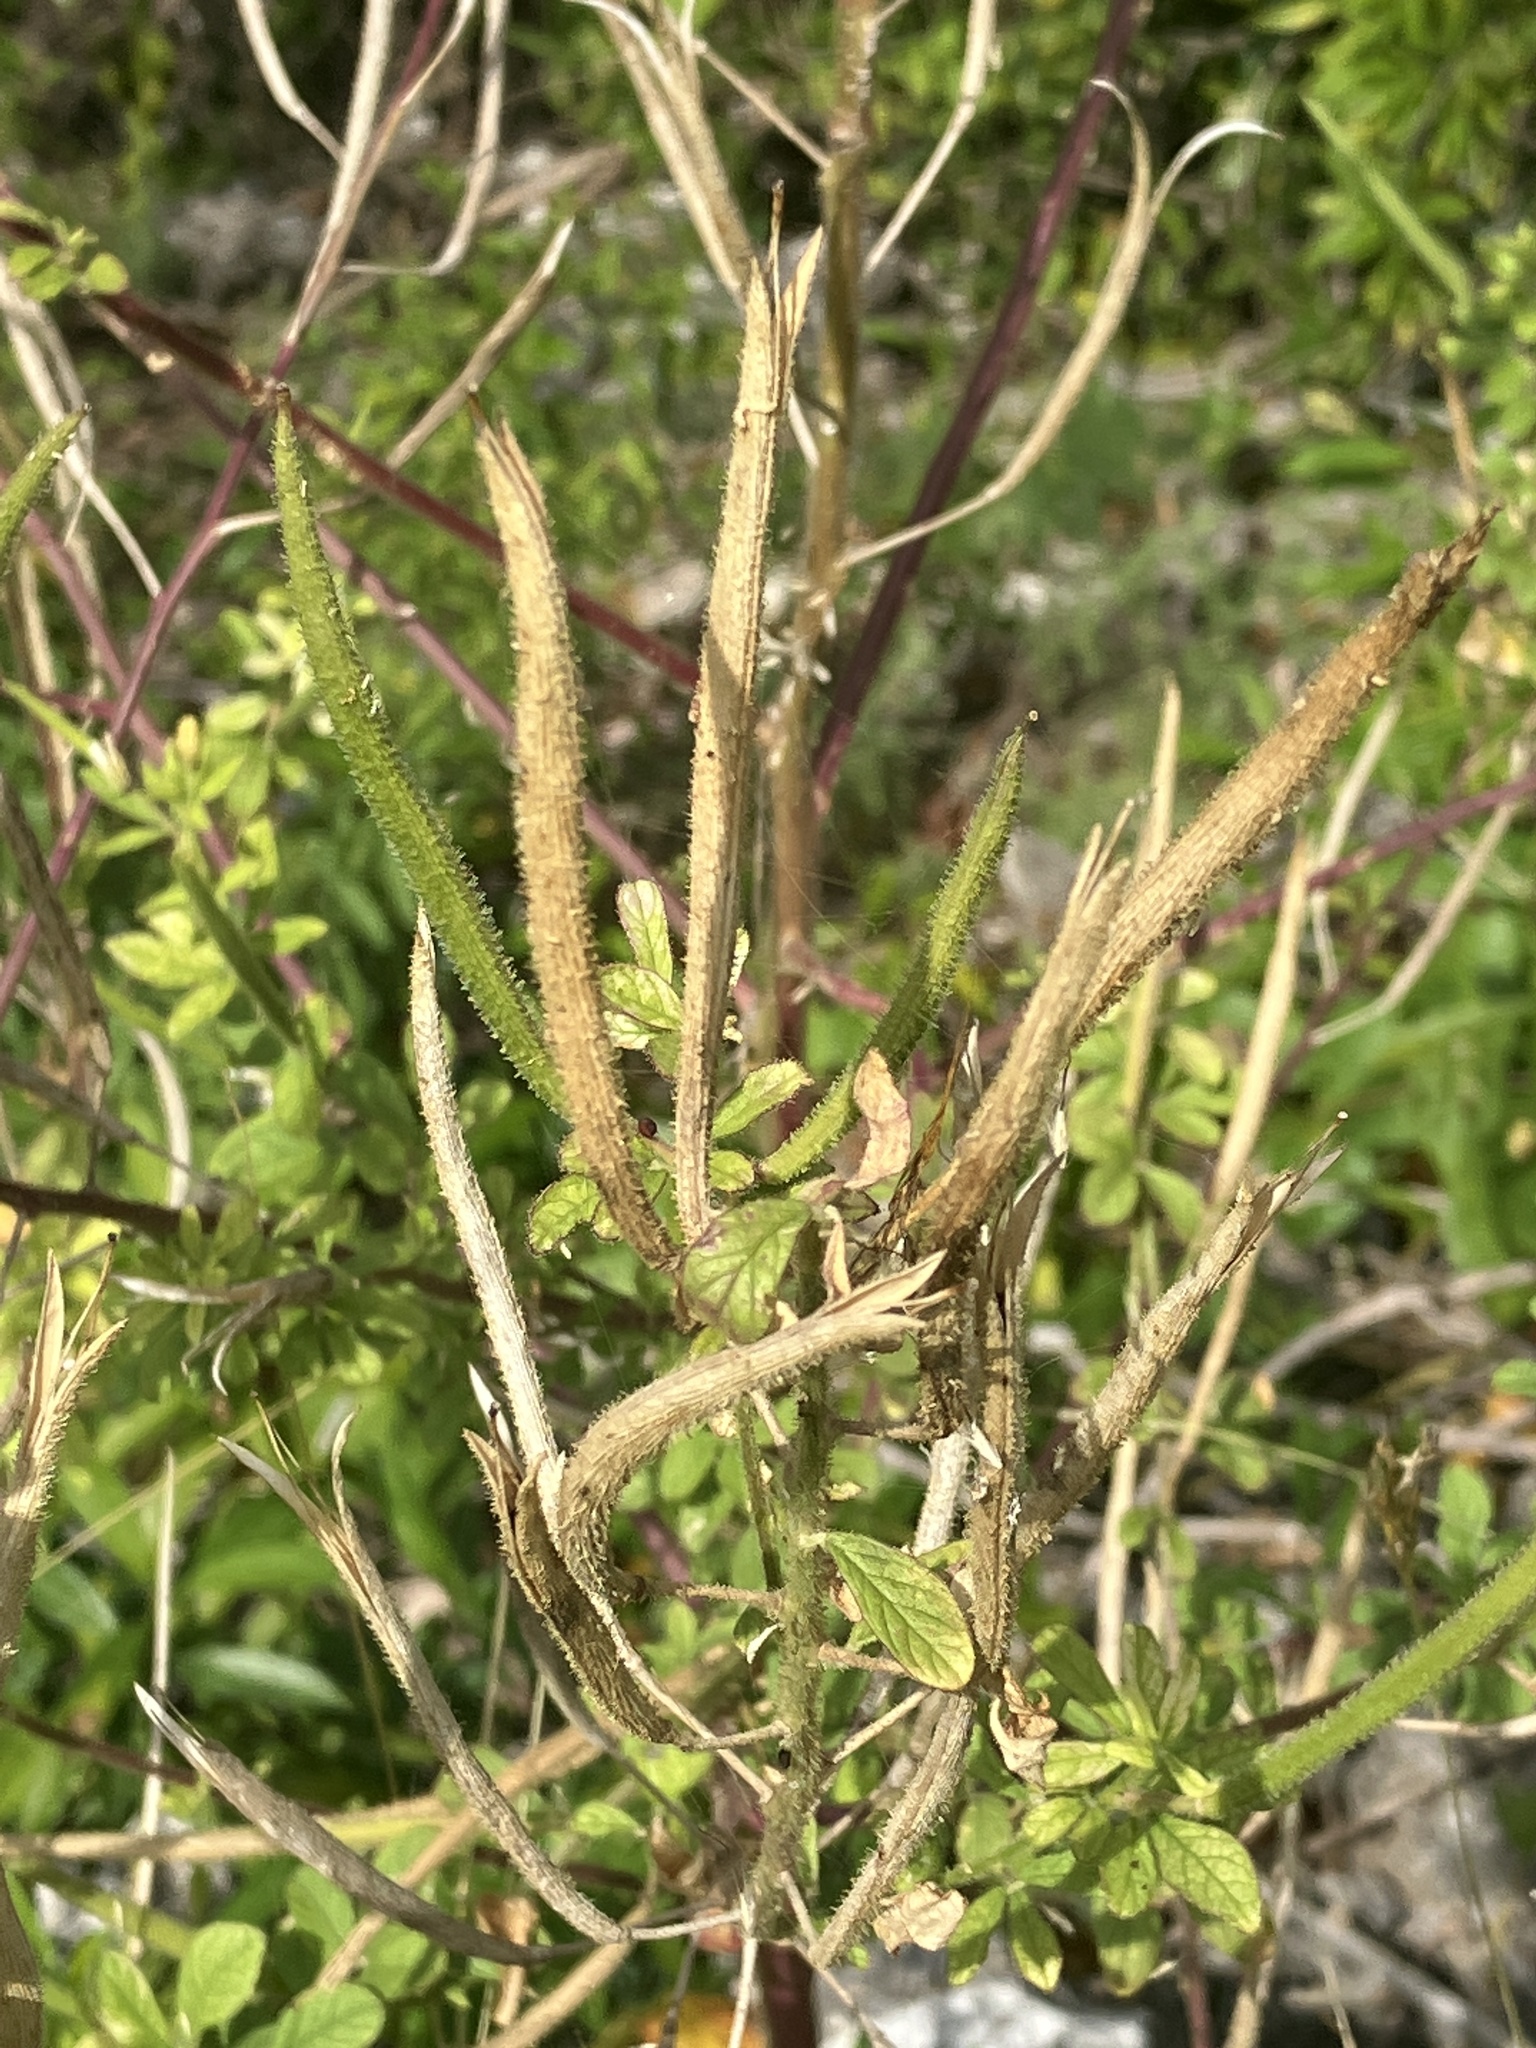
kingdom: Plantae
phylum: Tracheophyta
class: Magnoliopsida
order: Brassicales
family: Cleomaceae
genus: Arivela
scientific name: Arivela viscosa
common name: Asian spiderflower
